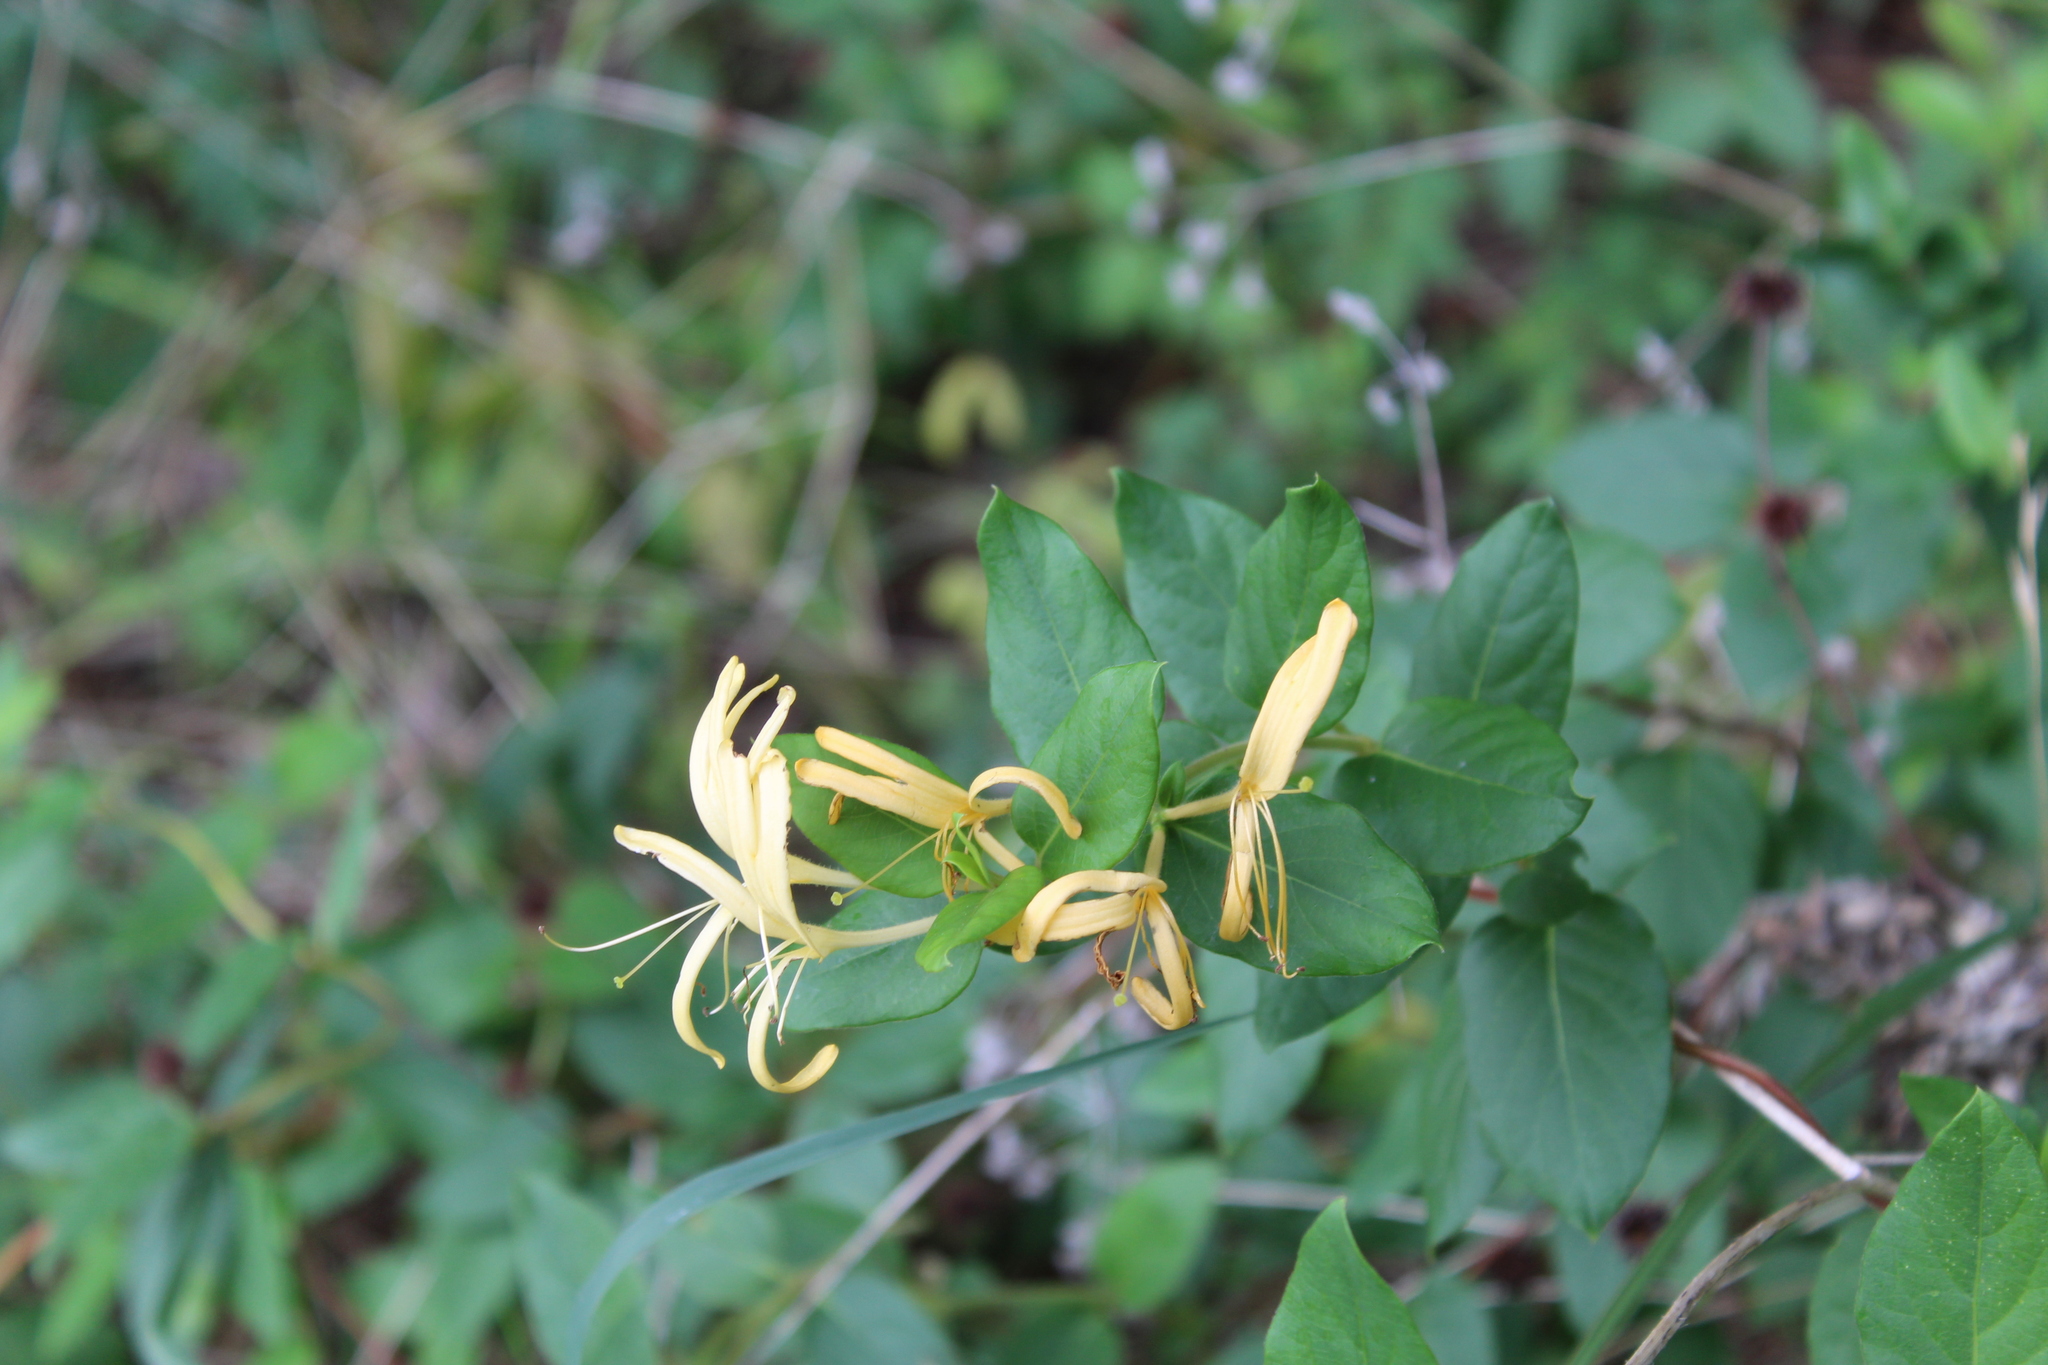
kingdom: Plantae
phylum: Tracheophyta
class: Magnoliopsida
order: Dipsacales
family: Caprifoliaceae
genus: Lonicera
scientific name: Lonicera japonica
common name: Japanese honeysuckle
